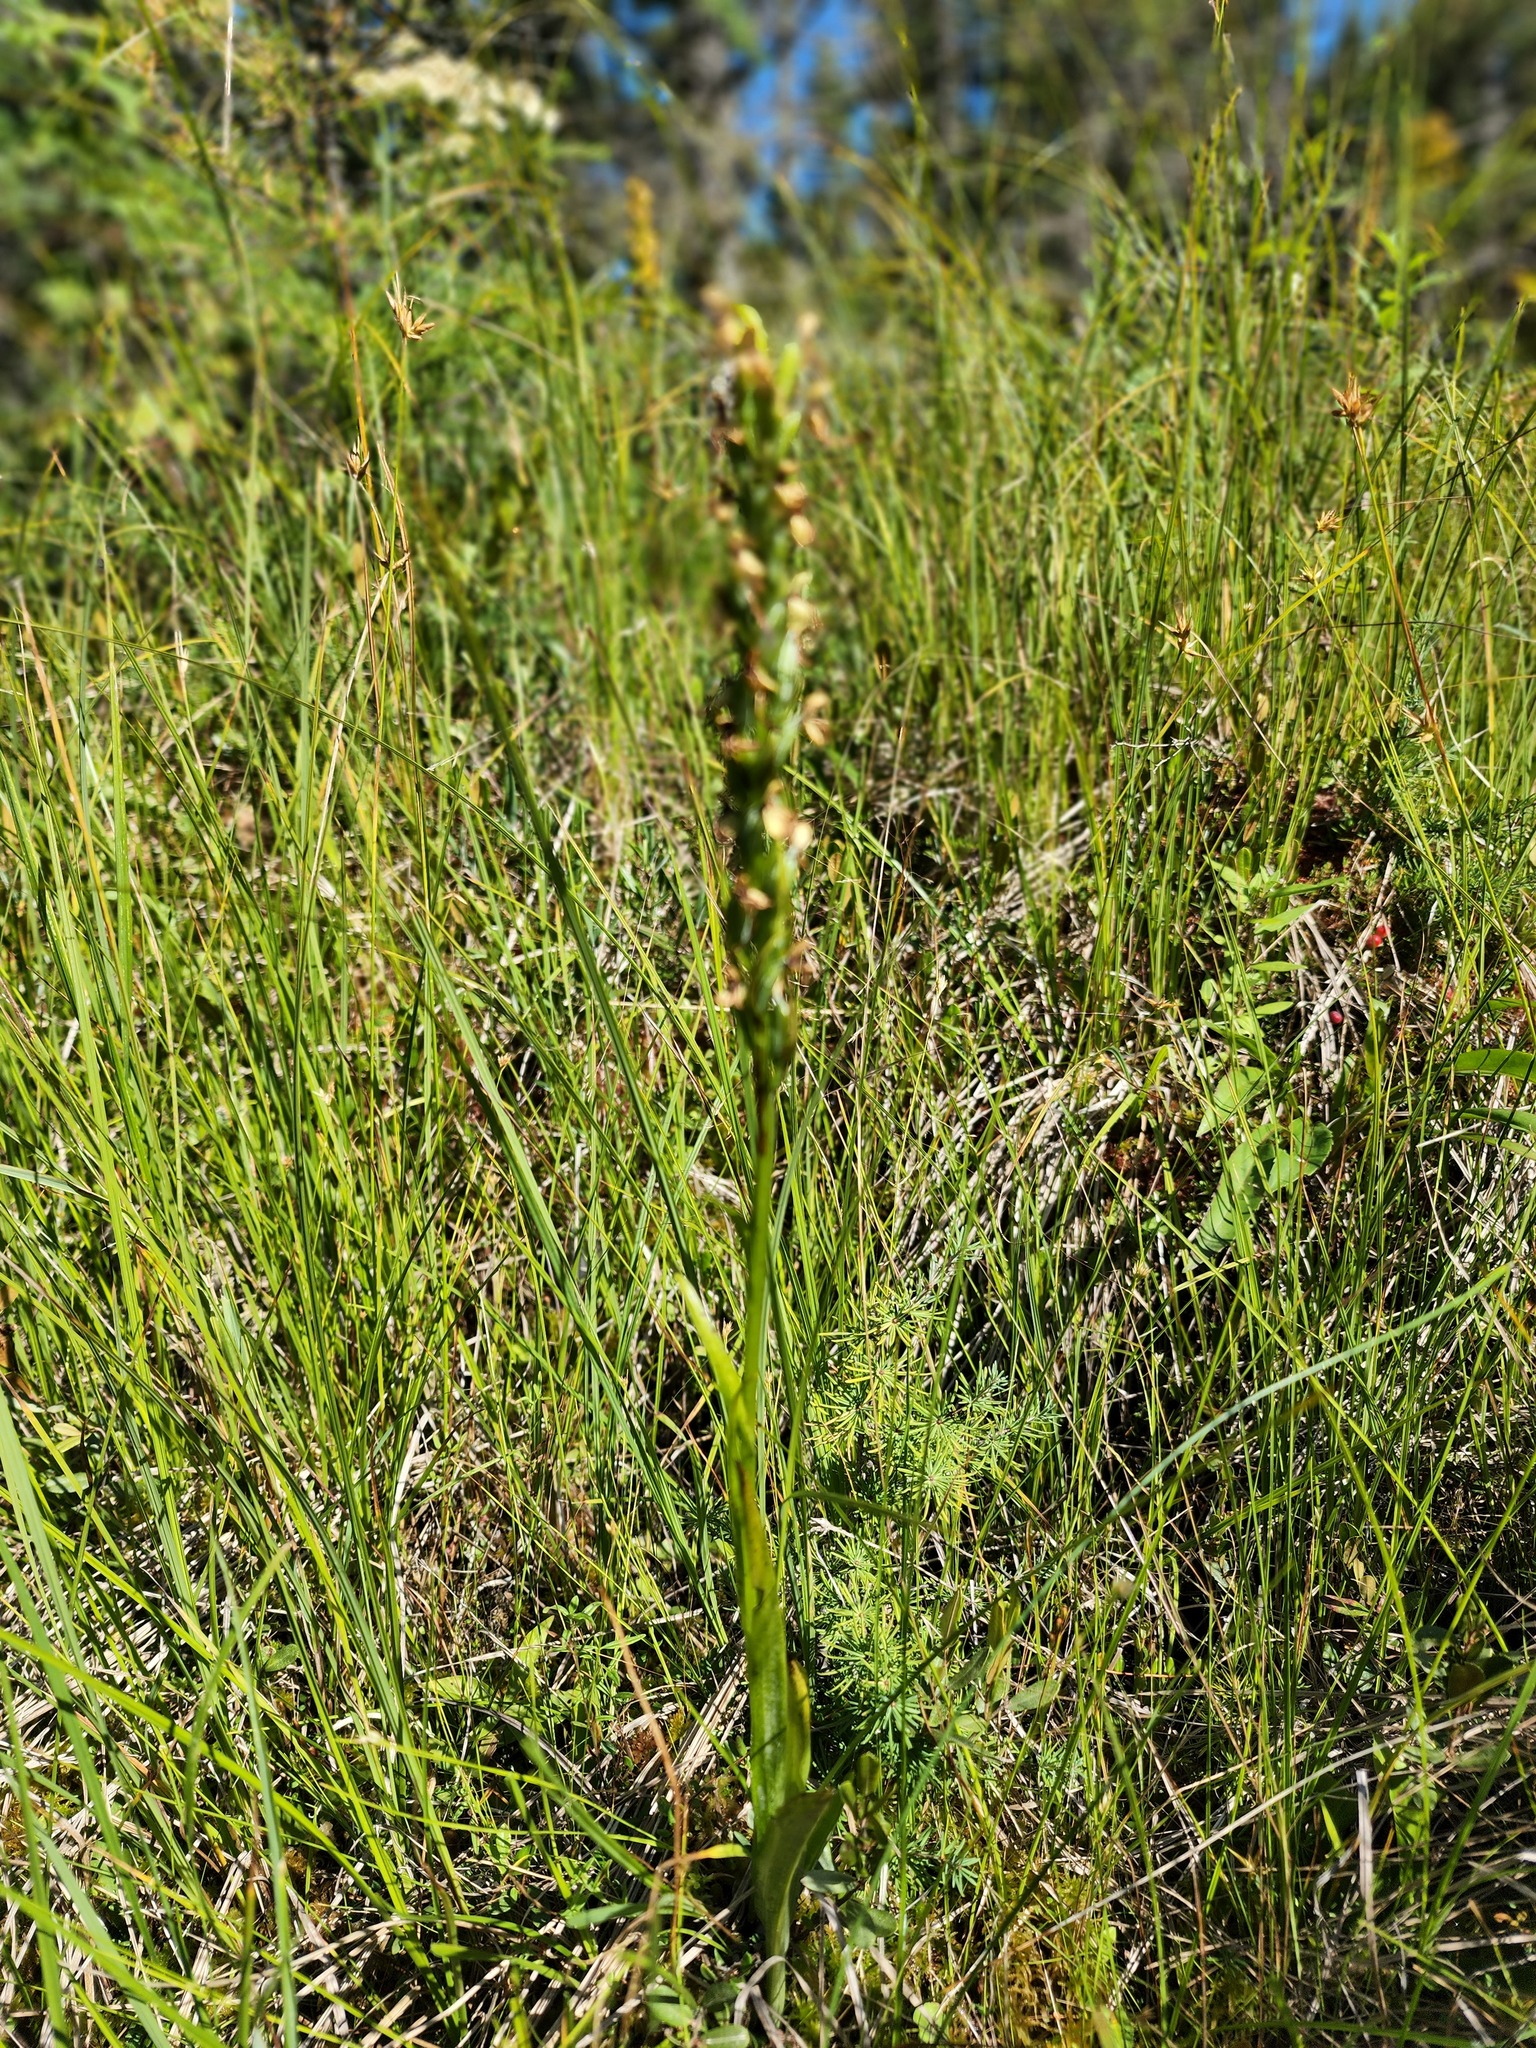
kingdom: Plantae
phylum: Tracheophyta
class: Liliopsida
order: Asparagales
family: Orchidaceae
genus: Platanthera
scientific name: Platanthera lacera
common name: Green fringed orchid
